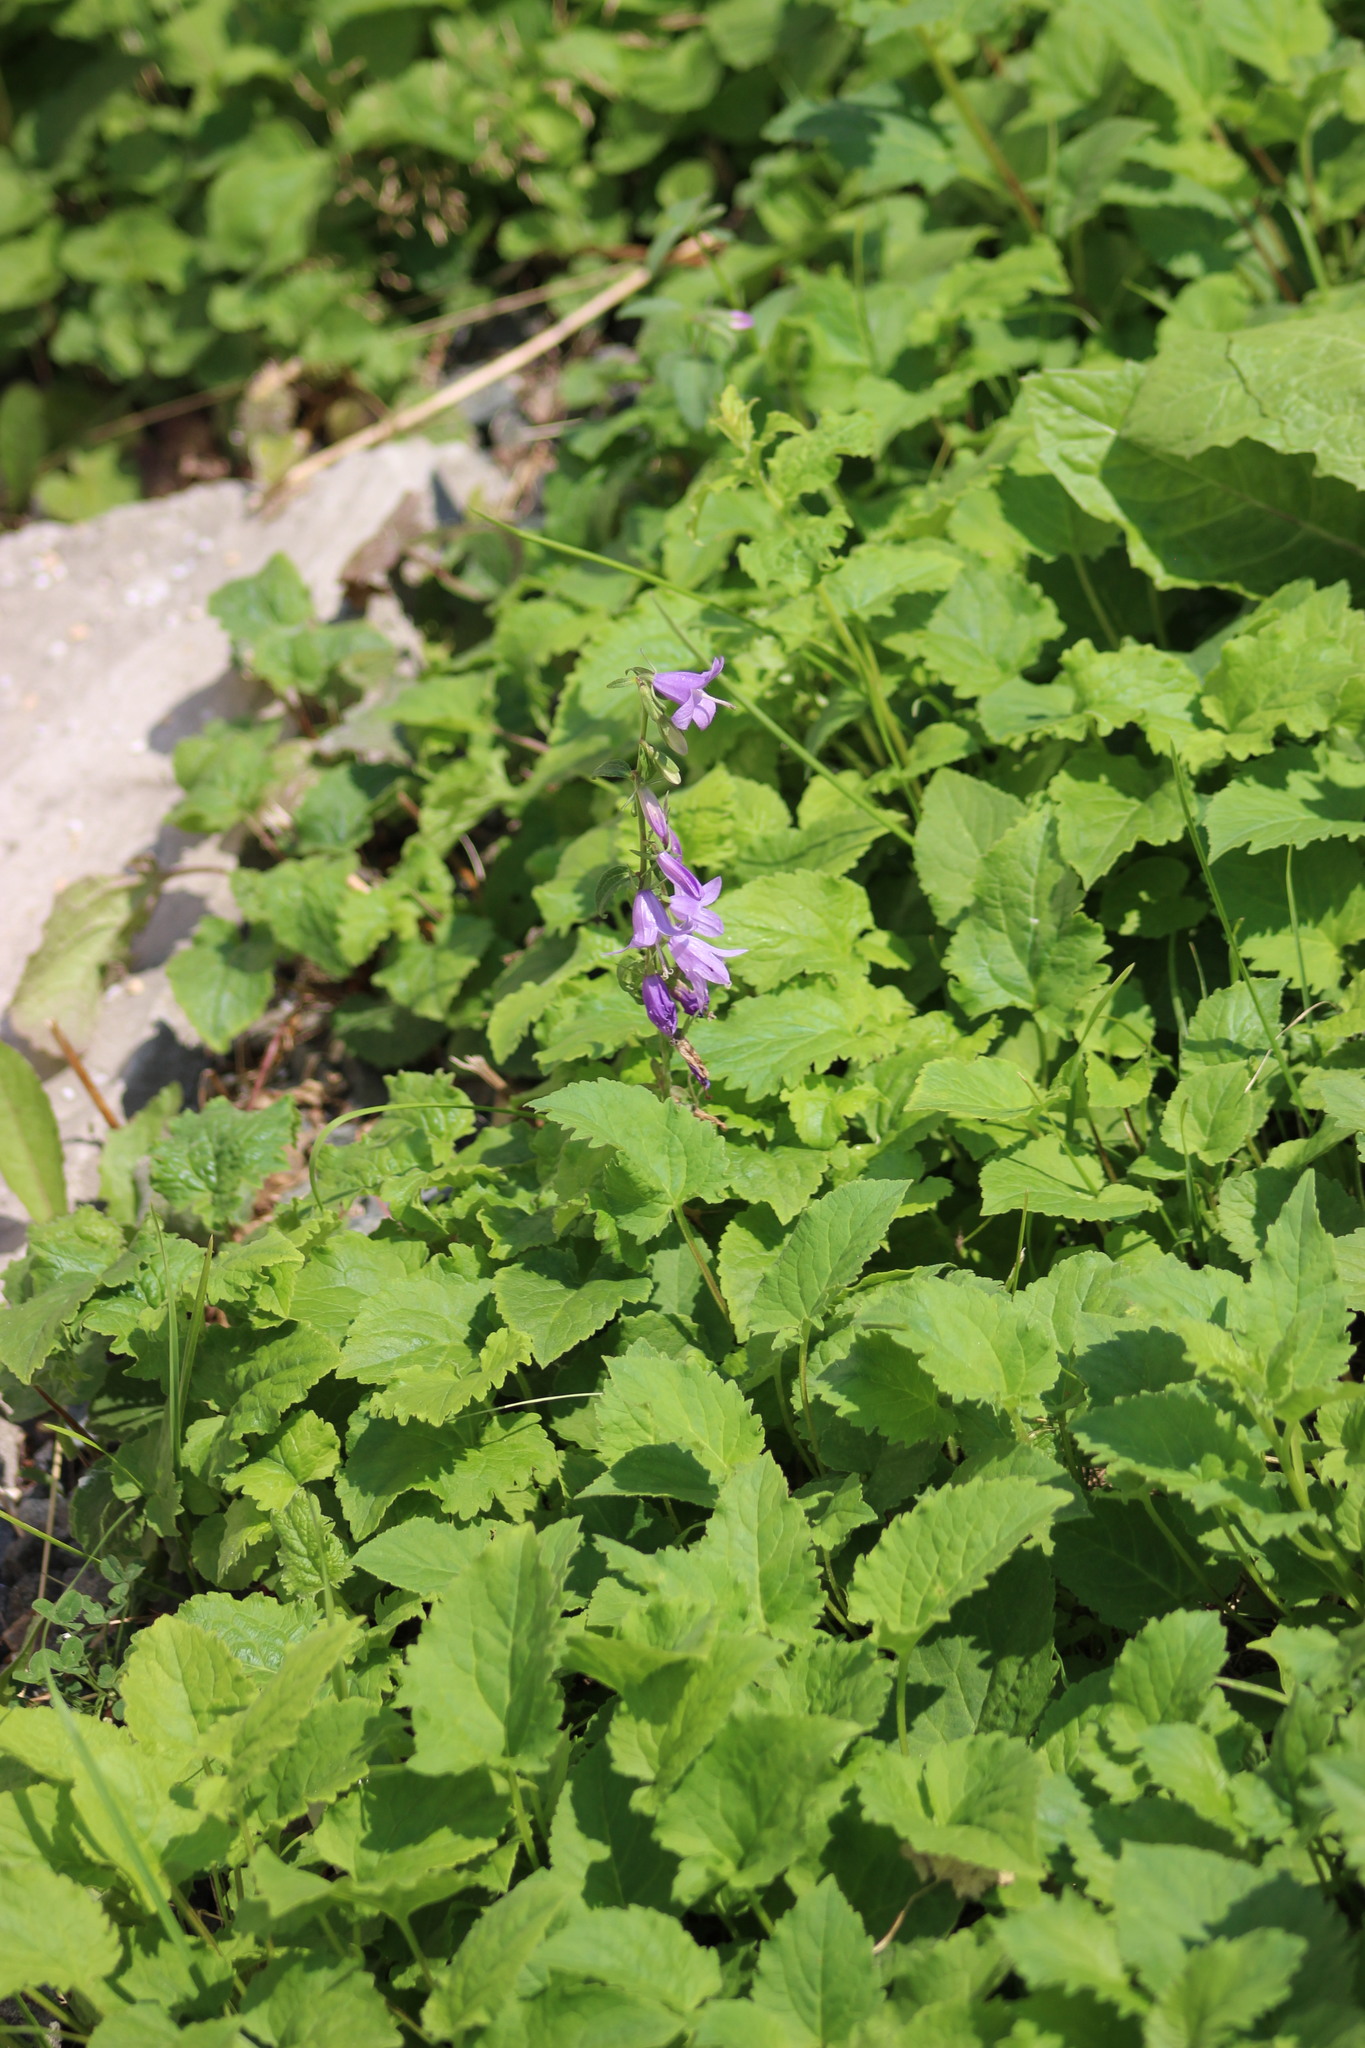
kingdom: Plantae
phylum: Tracheophyta
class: Magnoliopsida
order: Asterales
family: Campanulaceae
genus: Campanula
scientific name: Campanula rapunculoides
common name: Creeping bellflower
